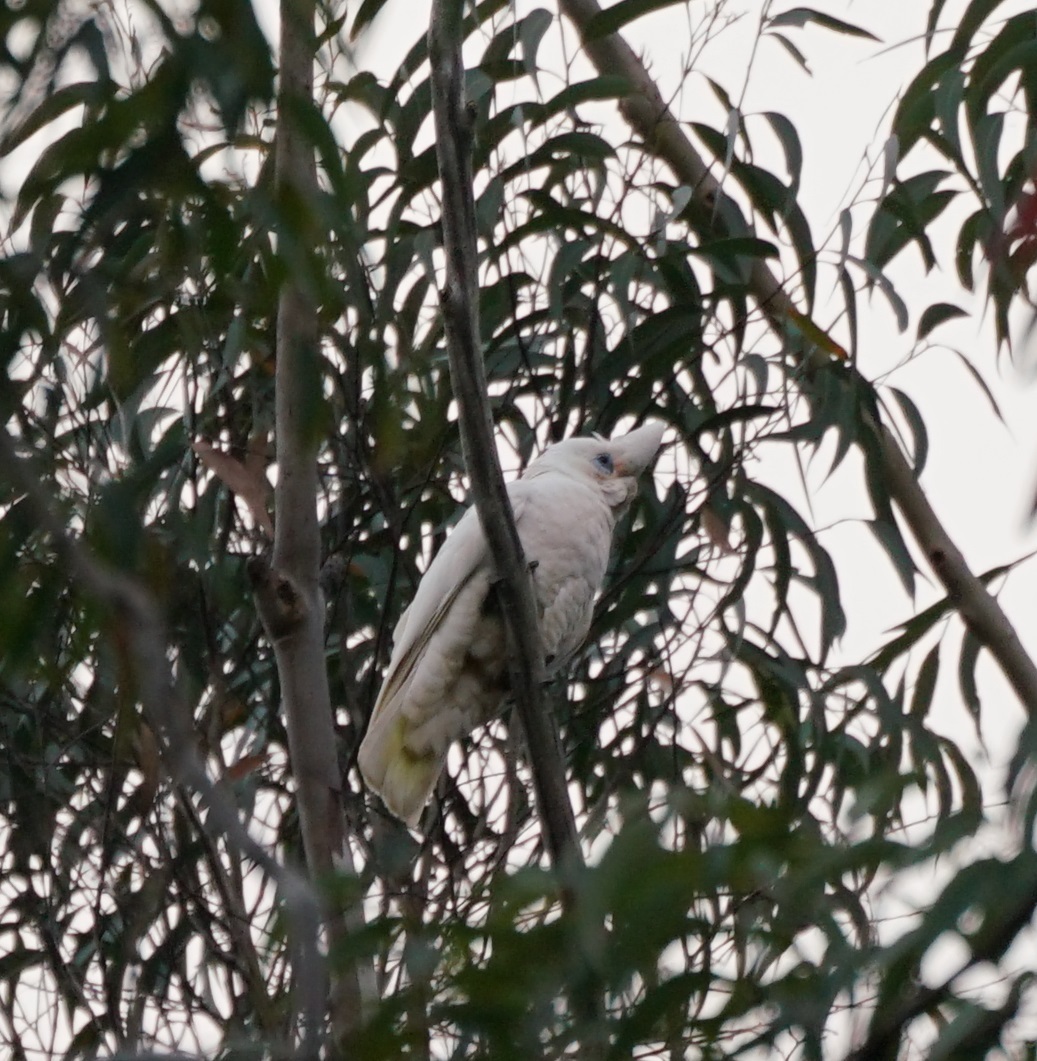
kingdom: Animalia
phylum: Chordata
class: Aves
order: Psittaciformes
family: Psittacidae
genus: Cacatua
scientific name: Cacatua sanguinea
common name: Little corella
